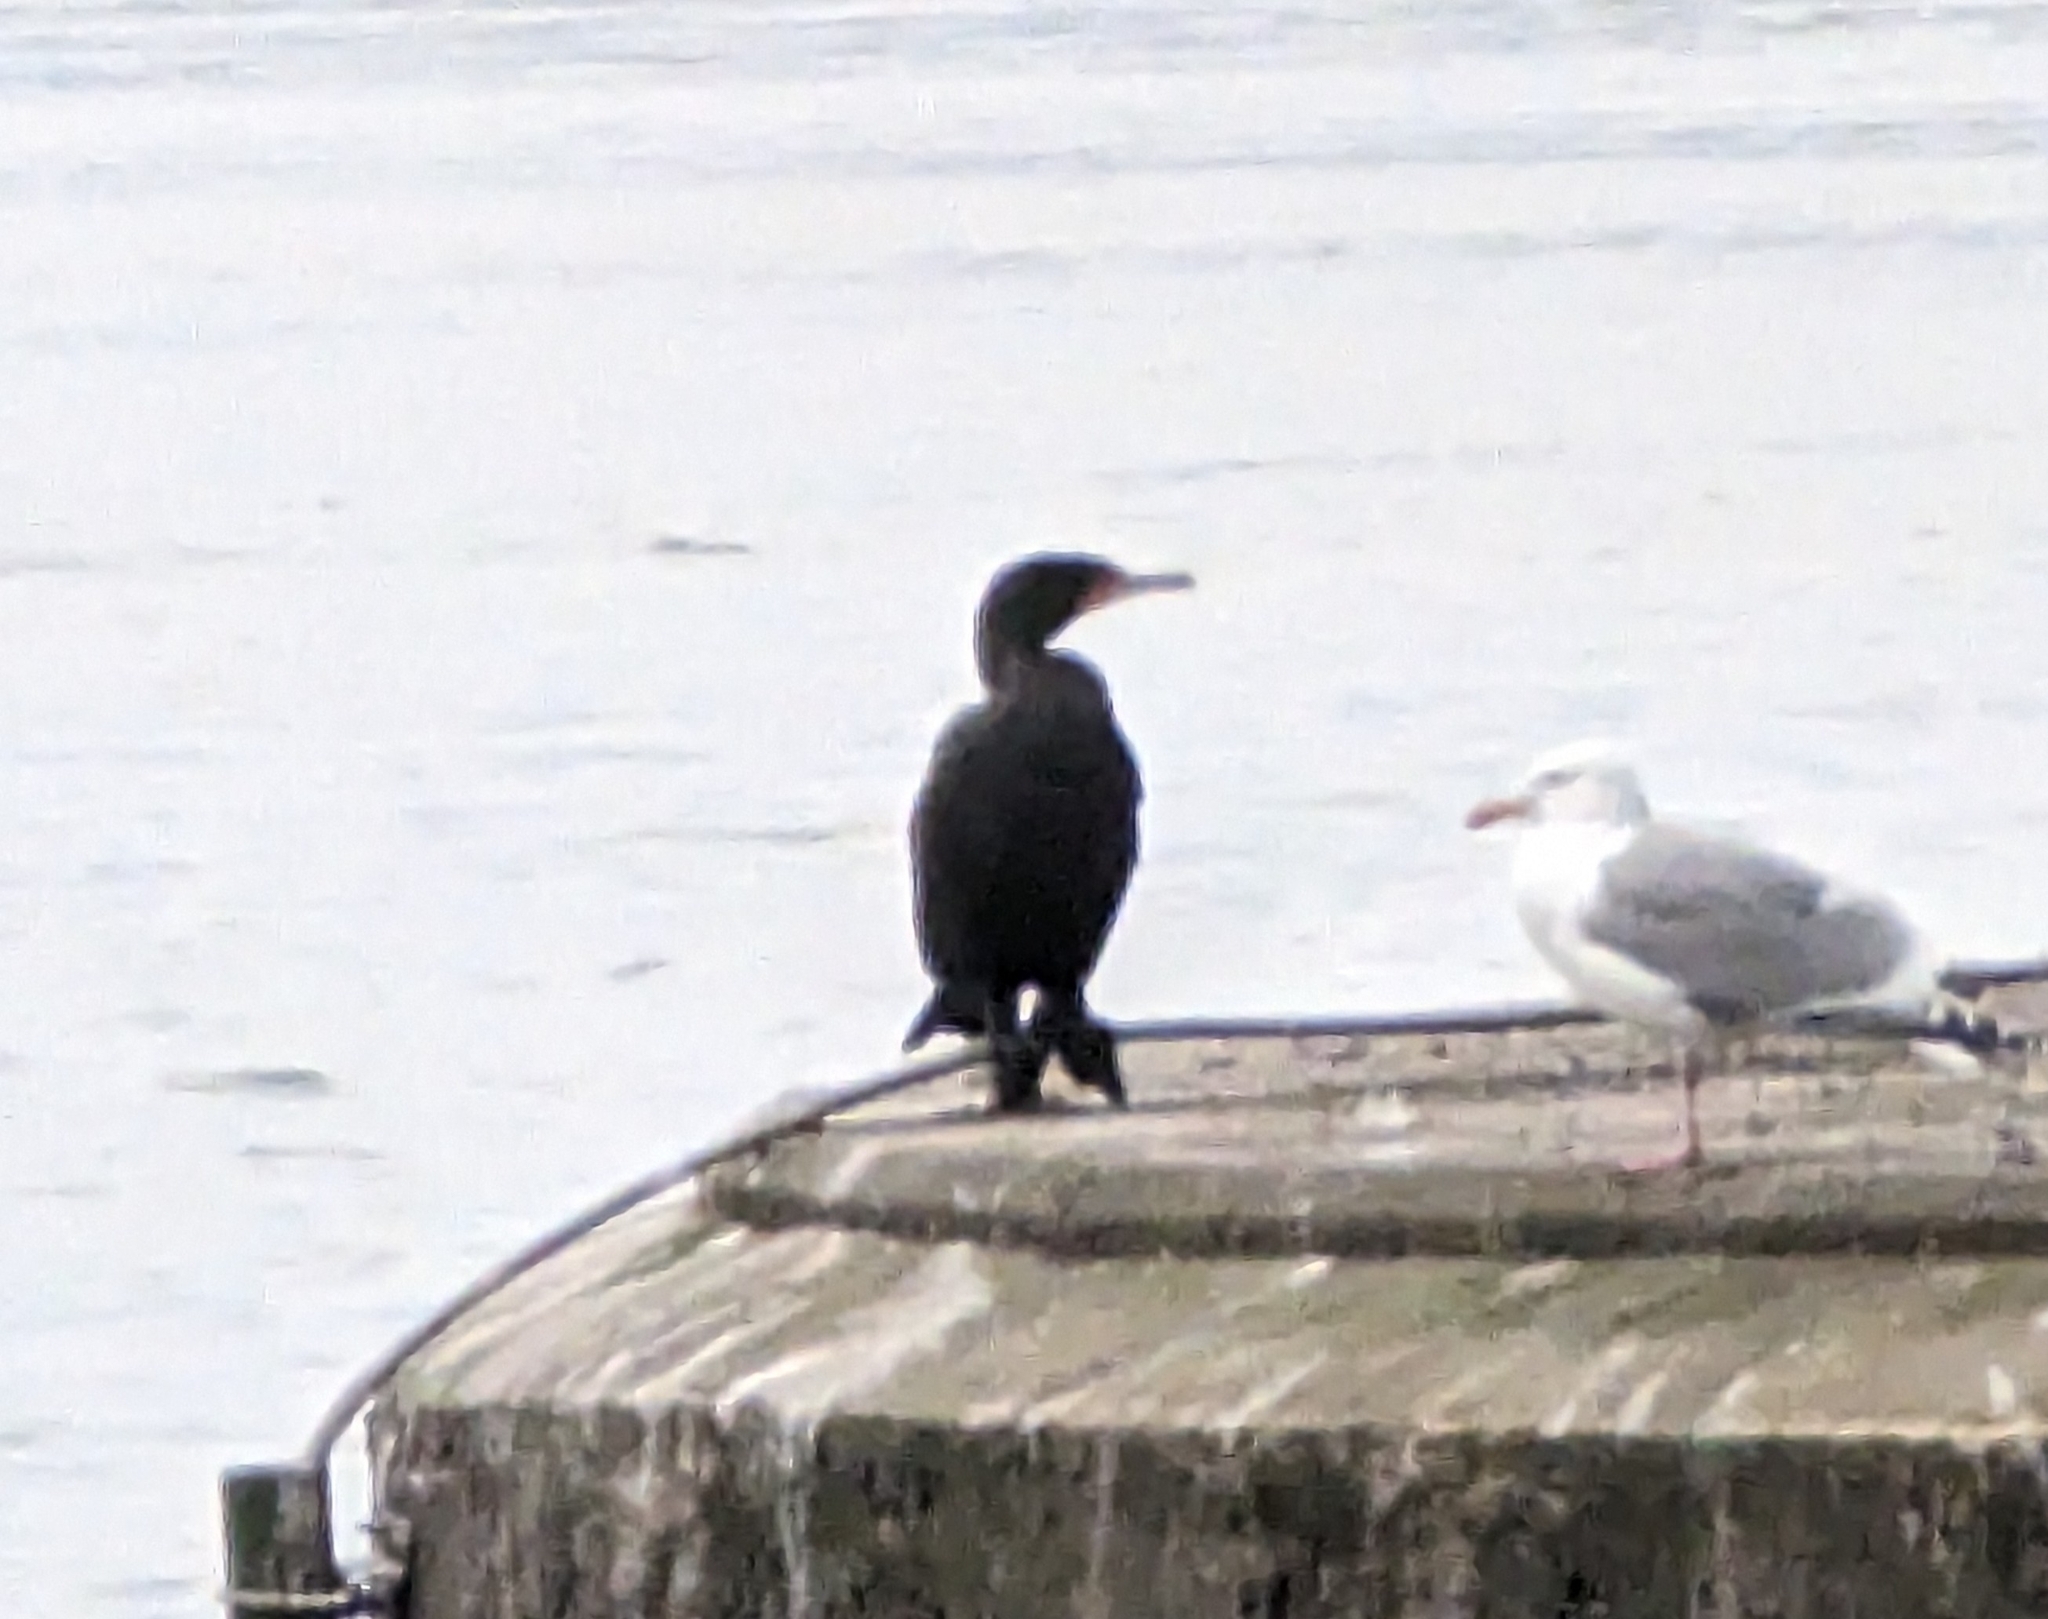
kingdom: Animalia
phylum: Chordata
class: Aves
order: Suliformes
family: Phalacrocoracidae
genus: Phalacrocorax
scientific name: Phalacrocorax auritus
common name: Double-crested cormorant
